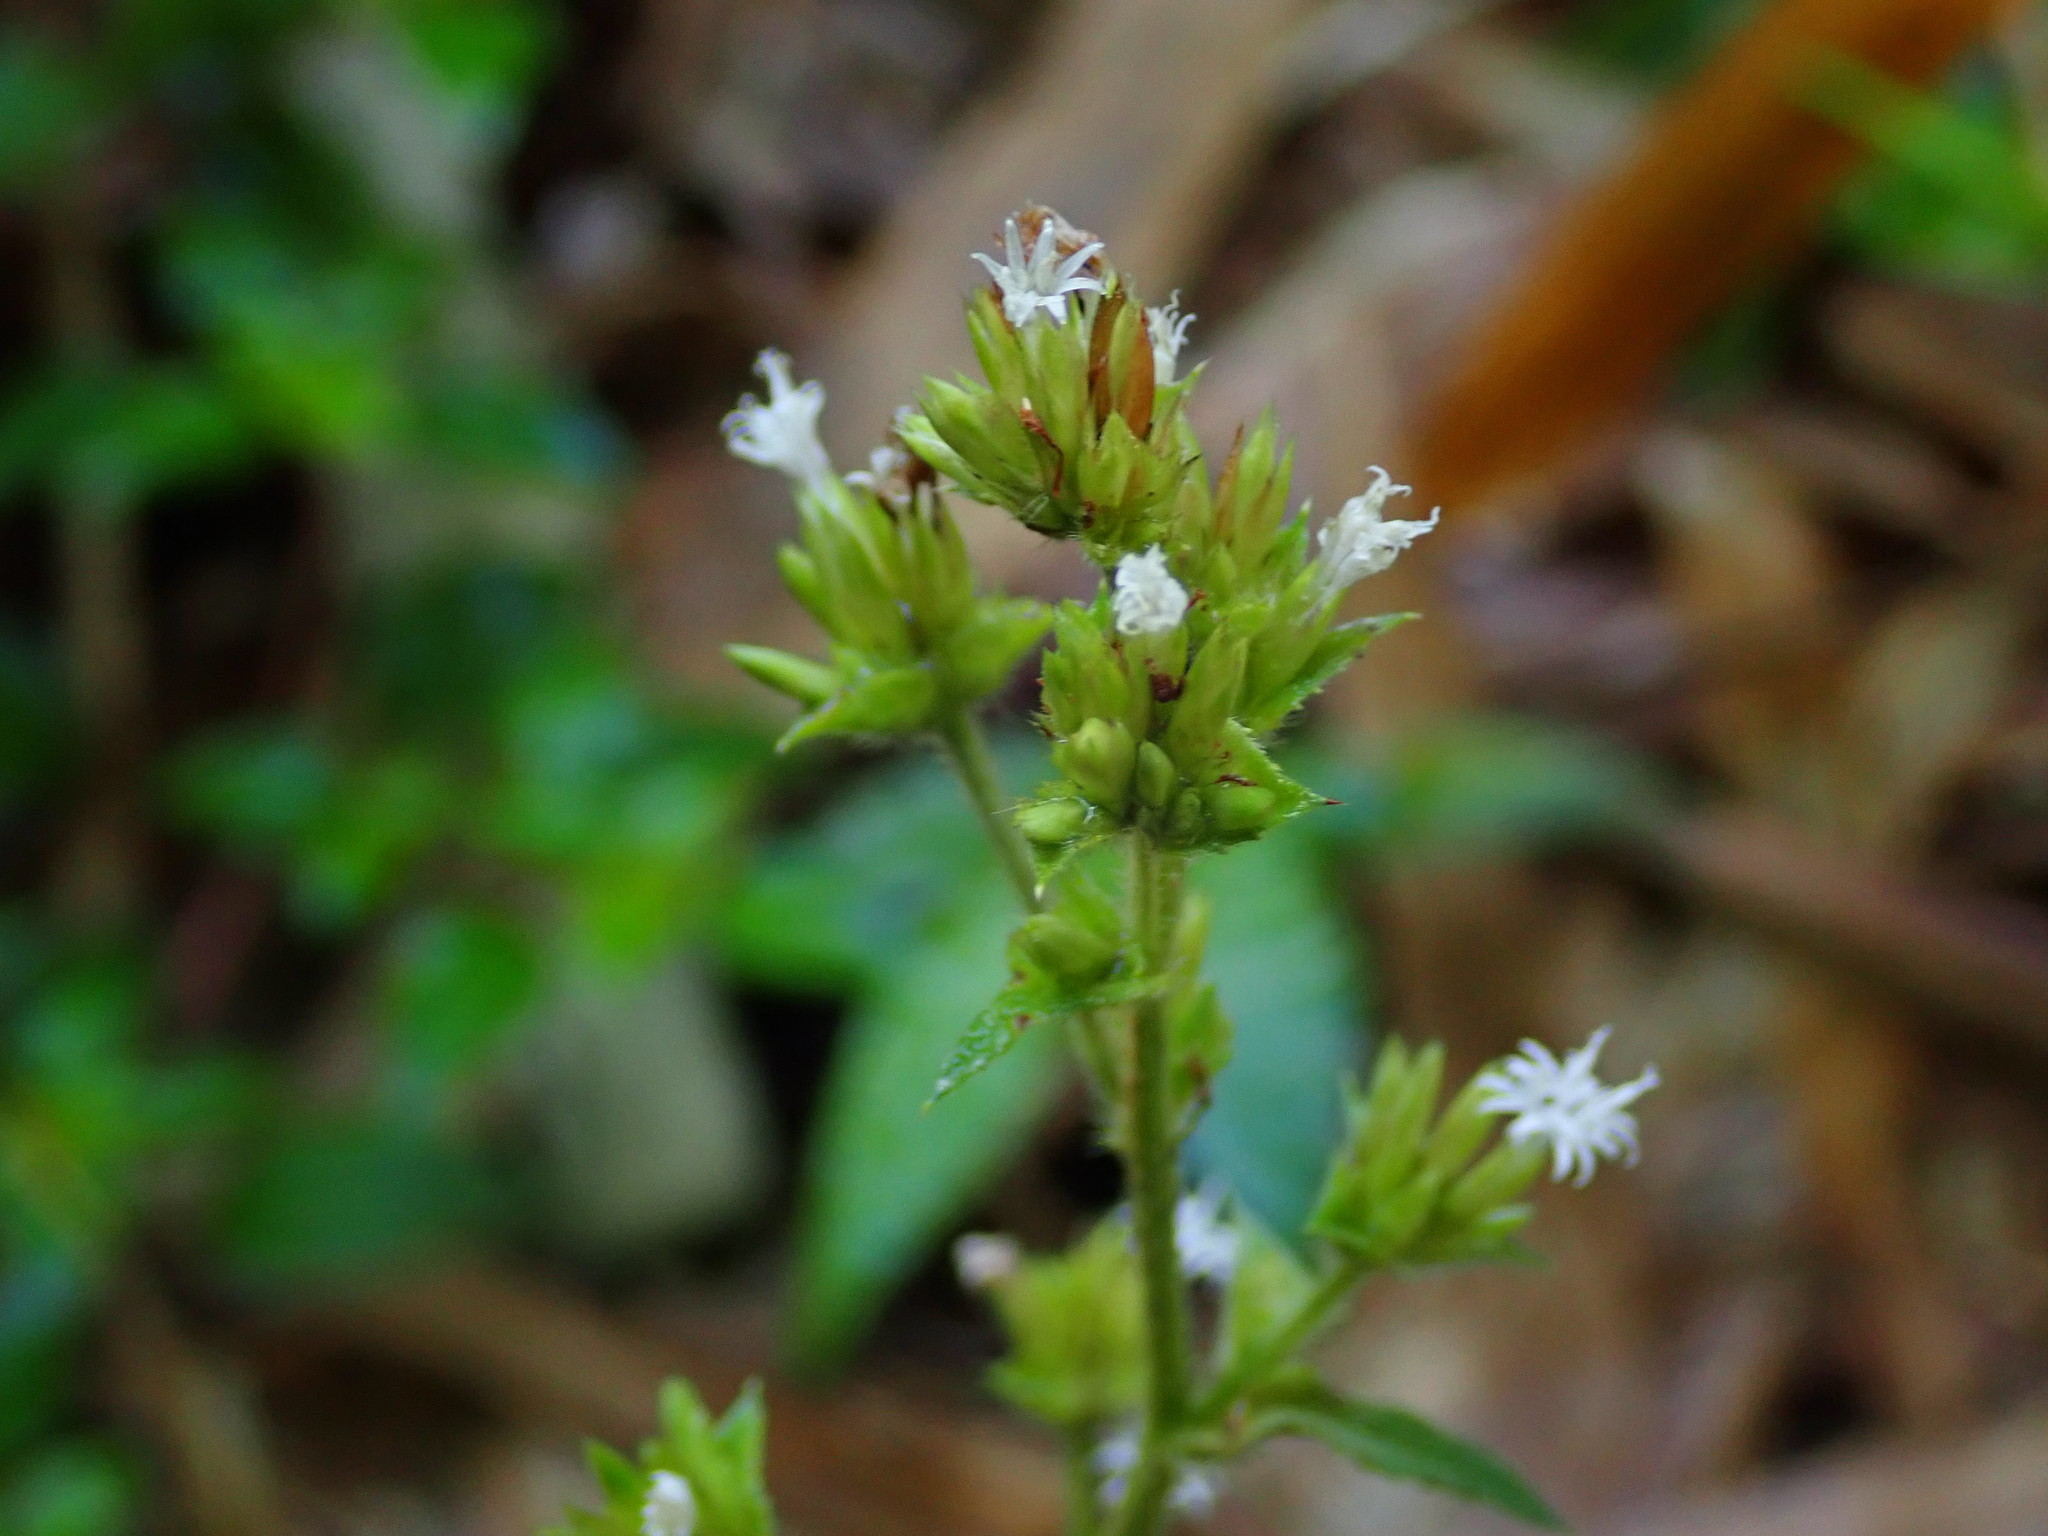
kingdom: Plantae
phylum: Tracheophyta
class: Magnoliopsida
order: Asterales
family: Asteraceae
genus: Elephantopus
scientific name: Elephantopus mollis
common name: Soft elephantsfoot
